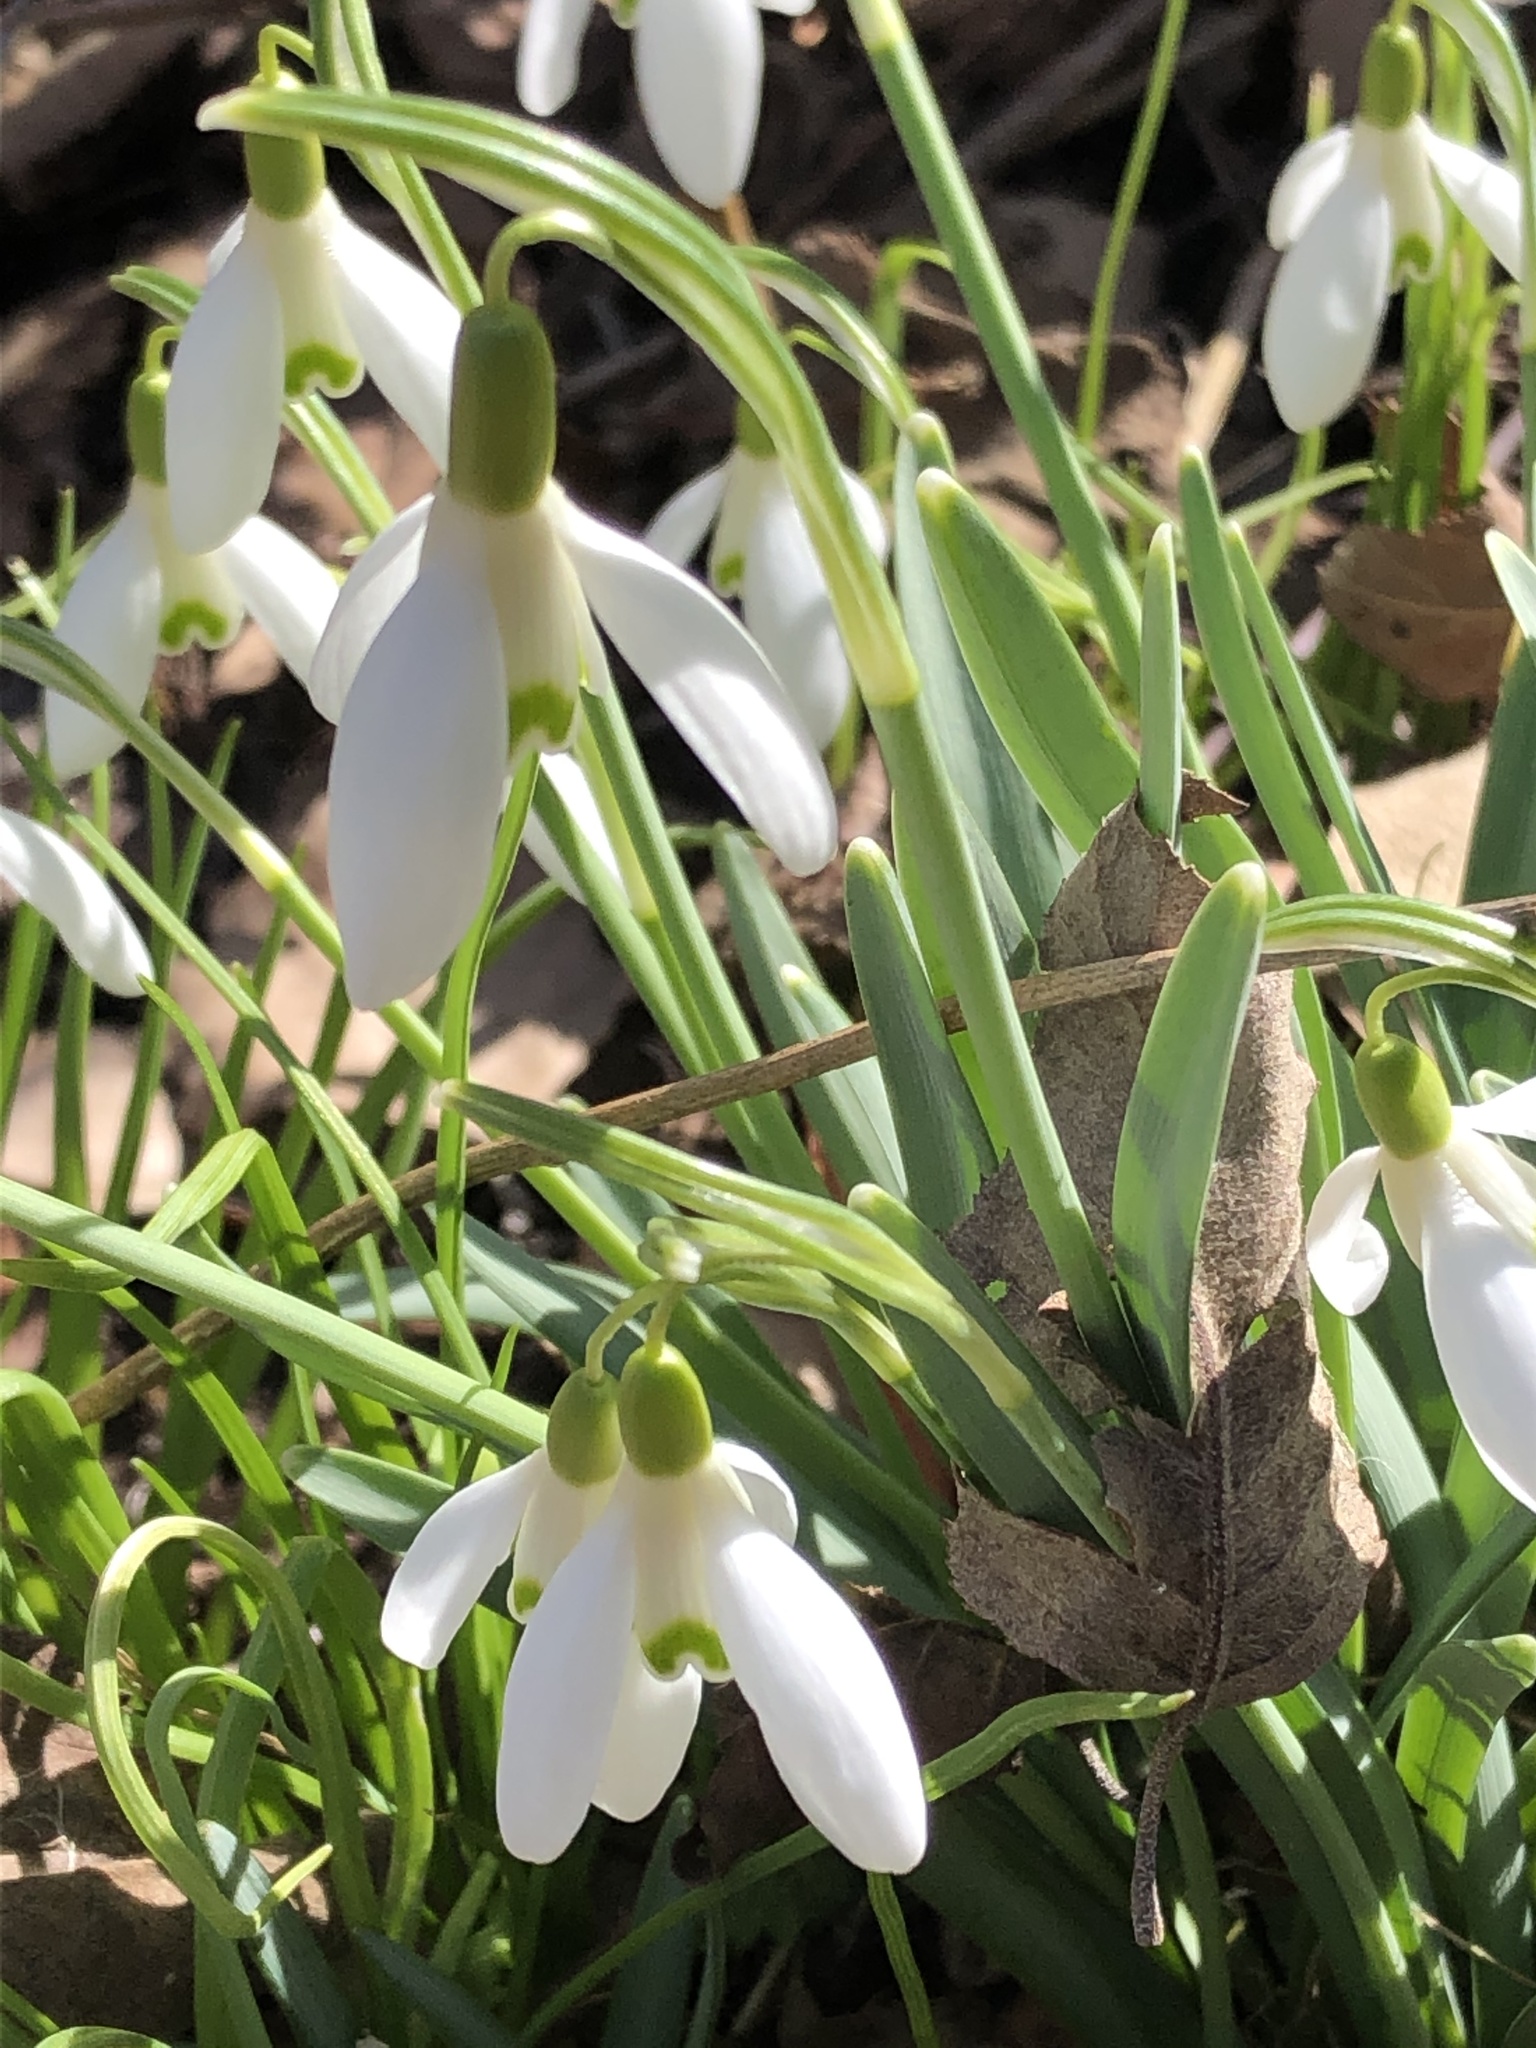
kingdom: Plantae
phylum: Tracheophyta
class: Liliopsida
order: Asparagales
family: Amaryllidaceae
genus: Galanthus
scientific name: Galanthus nivalis
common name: Snowdrop
